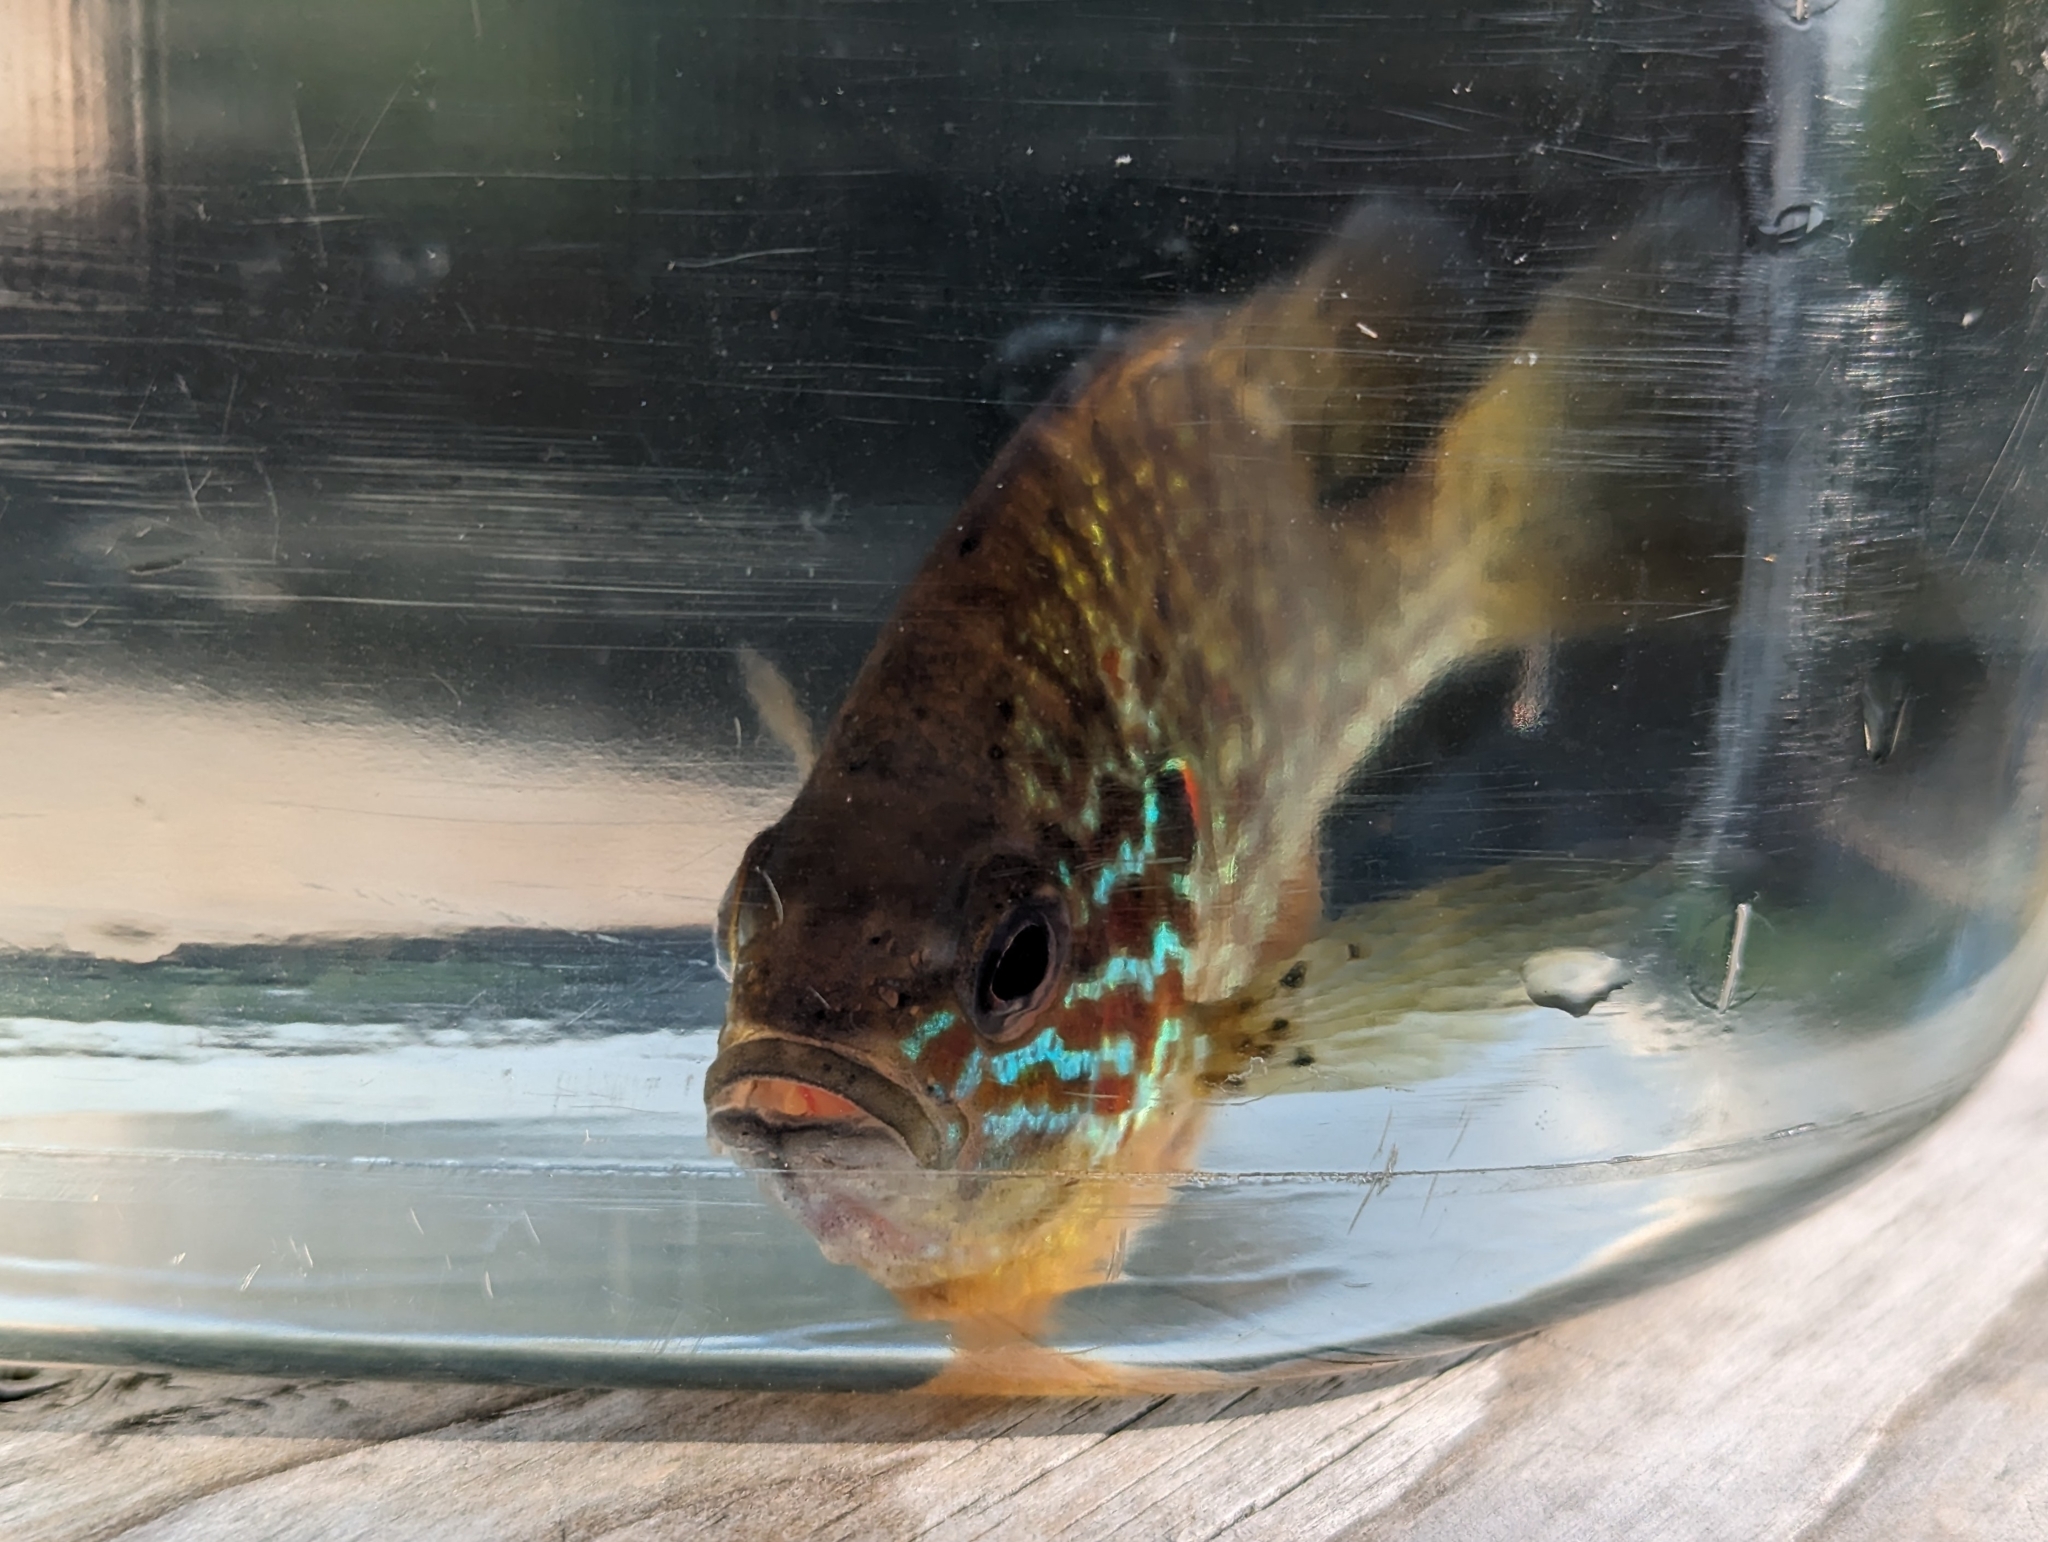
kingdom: Animalia
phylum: Chordata
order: Perciformes
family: Centrarchidae
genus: Lepomis
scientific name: Lepomis gibbosus
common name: Pumpkinseed
